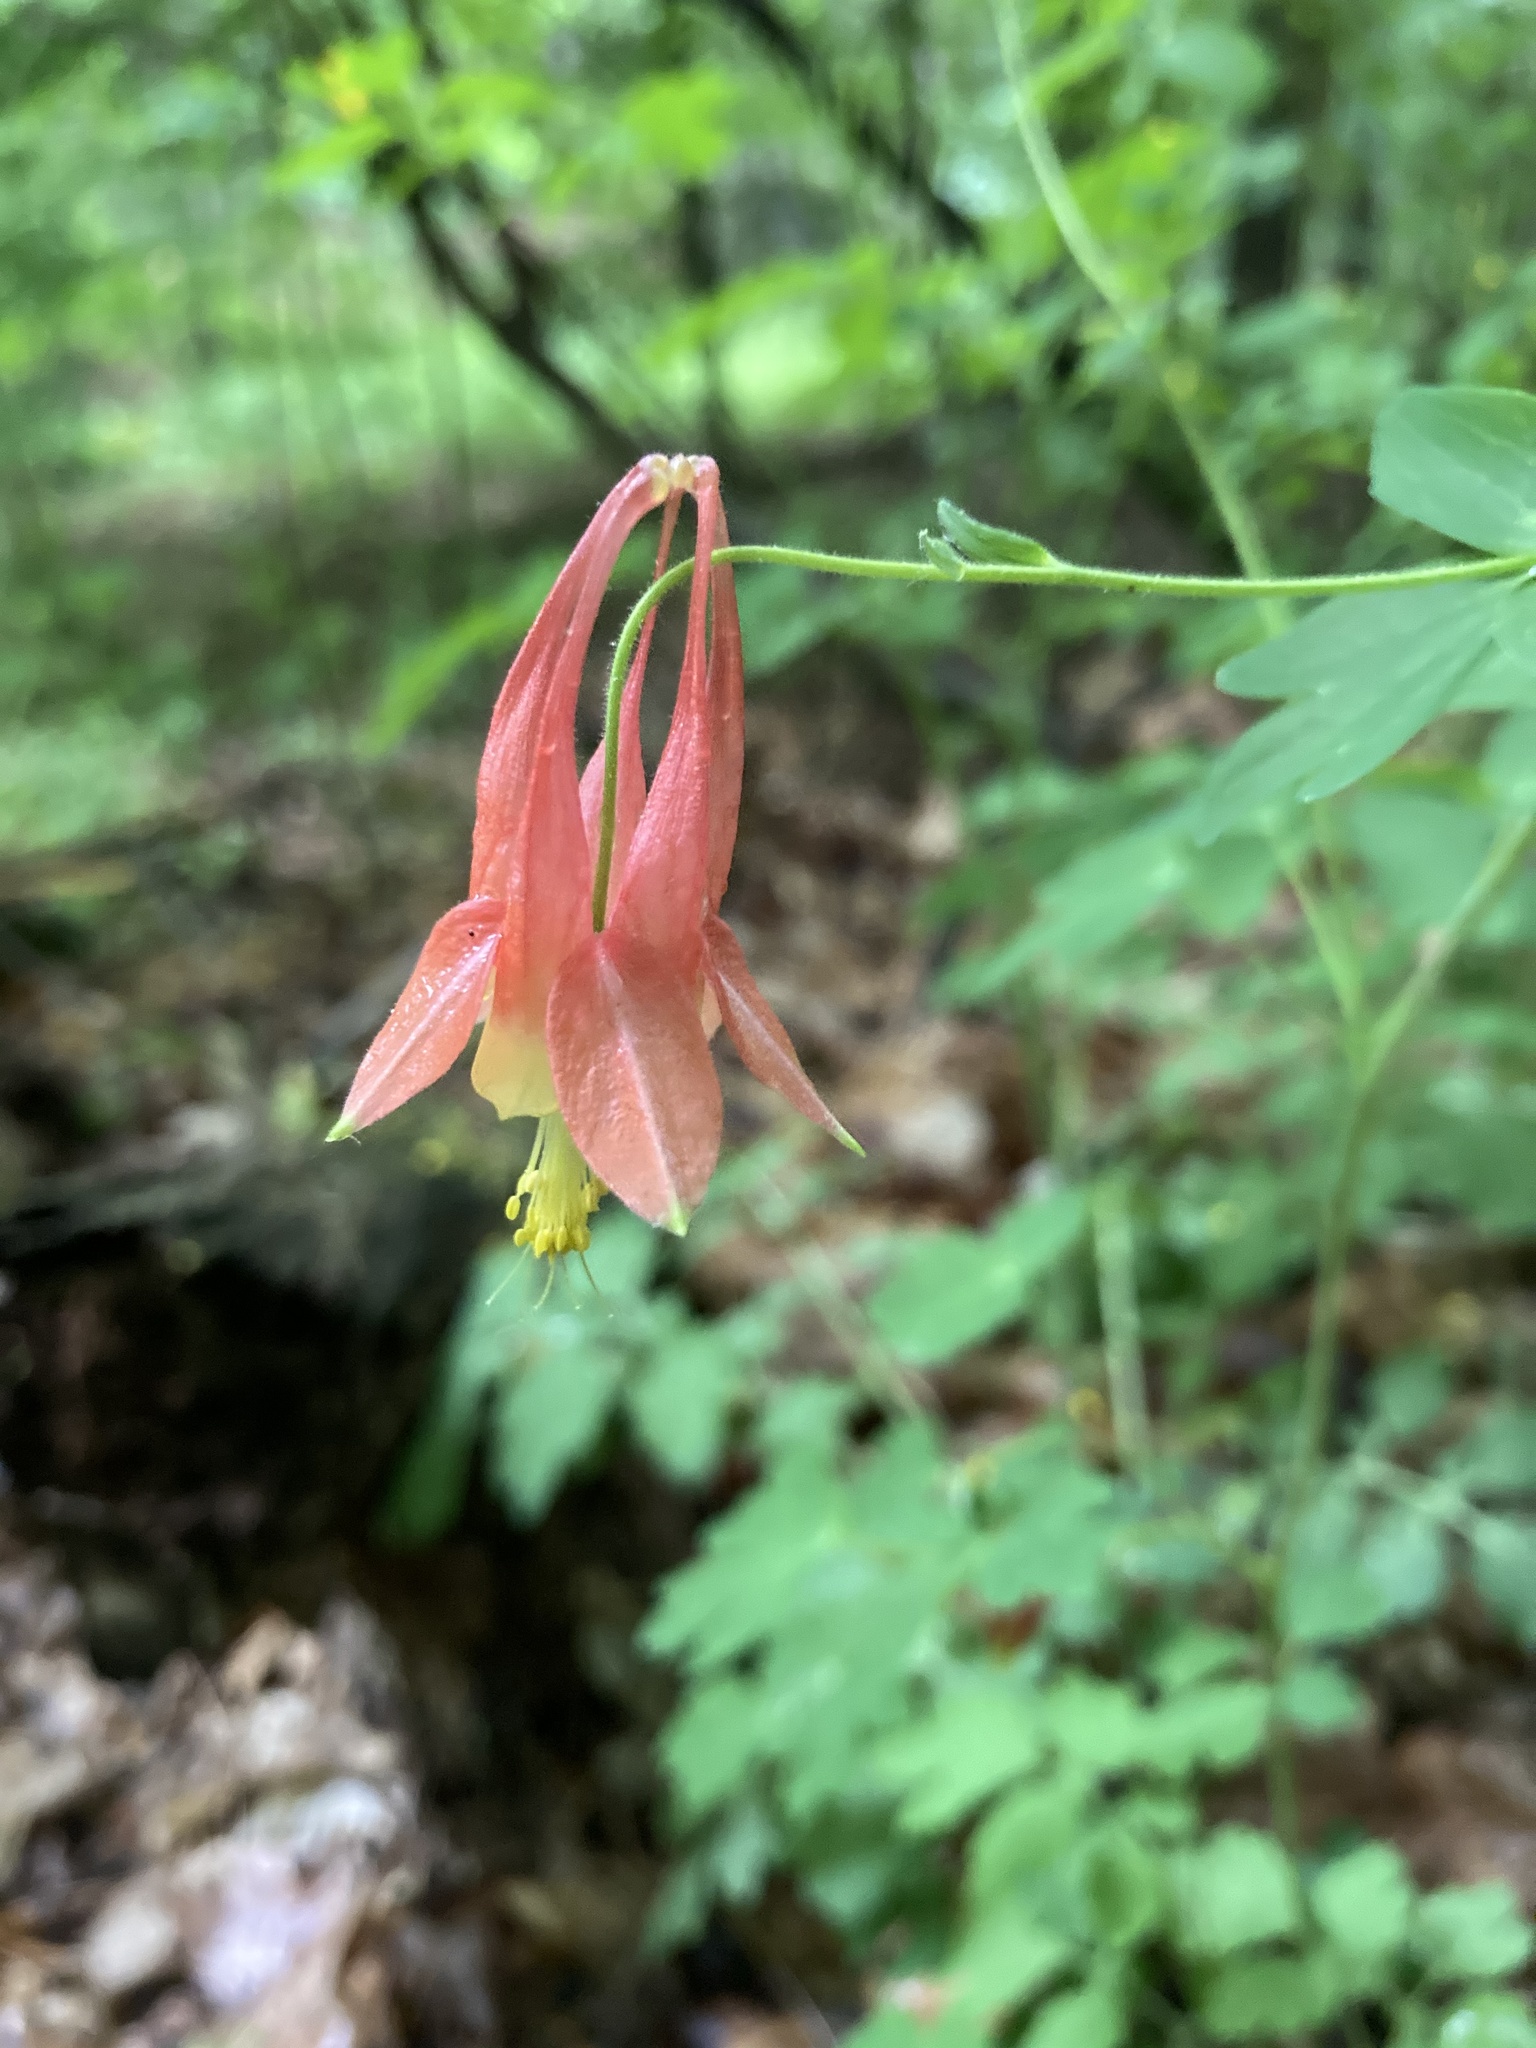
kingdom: Plantae
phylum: Tracheophyta
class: Magnoliopsida
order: Ranunculales
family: Ranunculaceae
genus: Aquilegia
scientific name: Aquilegia canadensis
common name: American columbine
